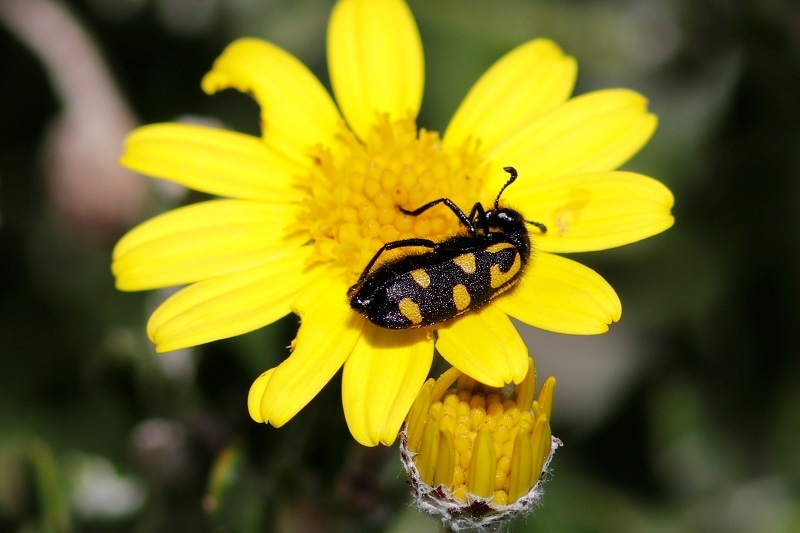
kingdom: Animalia
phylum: Arthropoda
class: Insecta
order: Coleoptera
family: Meloidae
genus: Ceroctis
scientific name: Ceroctis capensis
